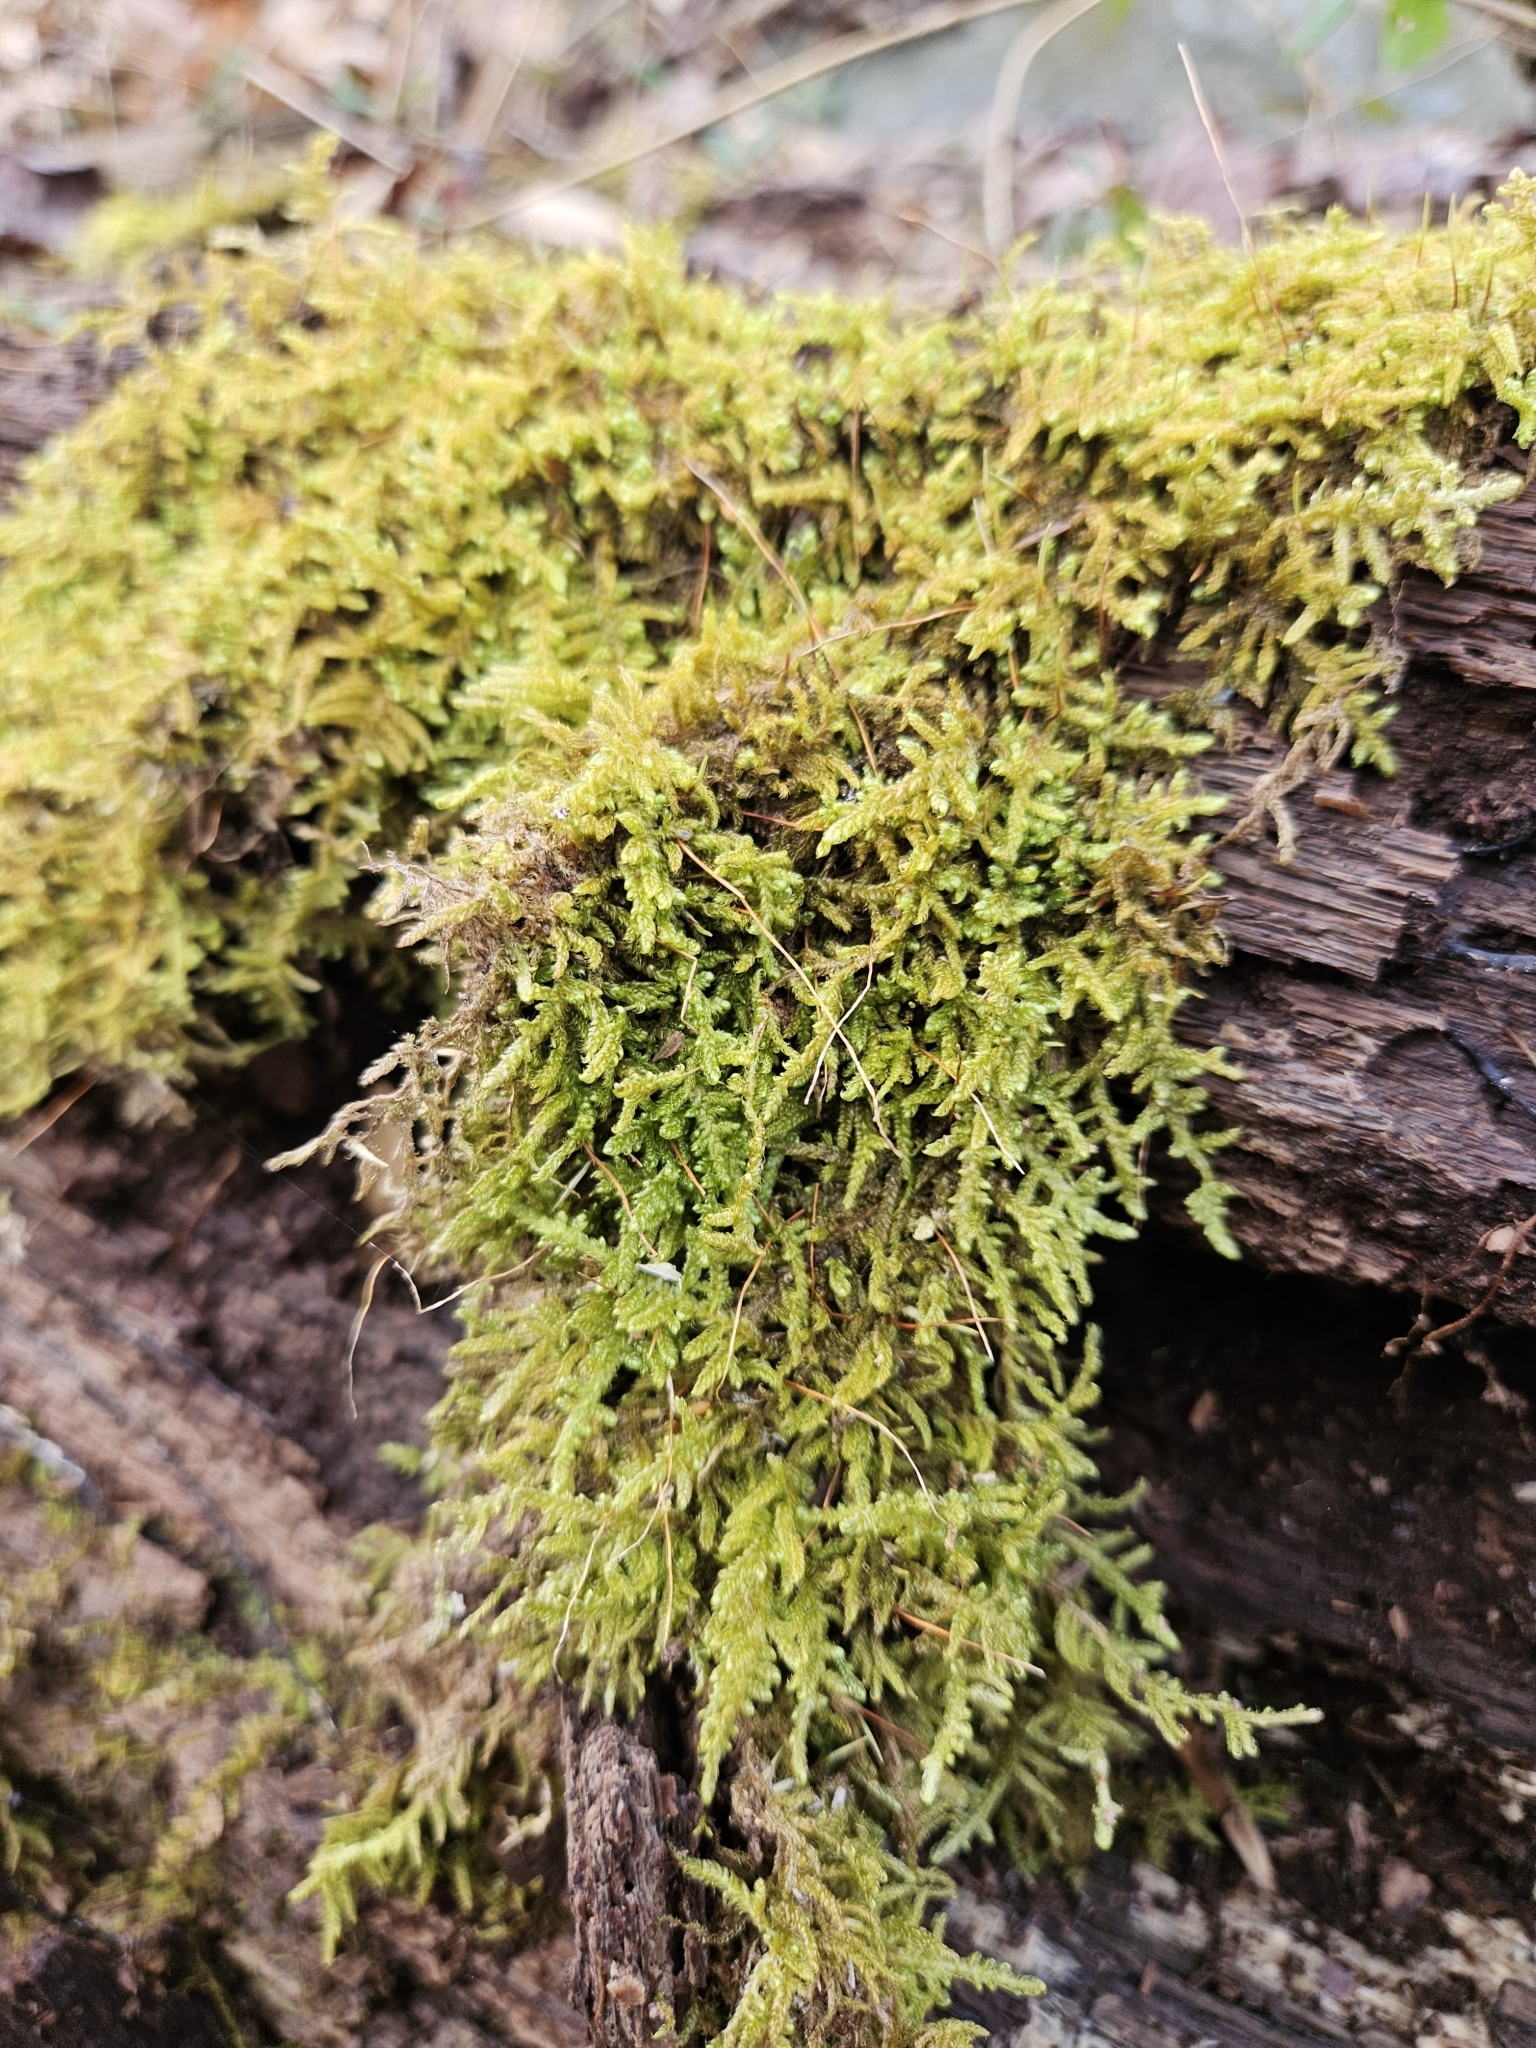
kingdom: Plantae
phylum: Bryophyta
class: Bryopsida
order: Hypnales
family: Callicladiaceae
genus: Callicladium
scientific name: Callicladium imponens
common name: Brocade moss
